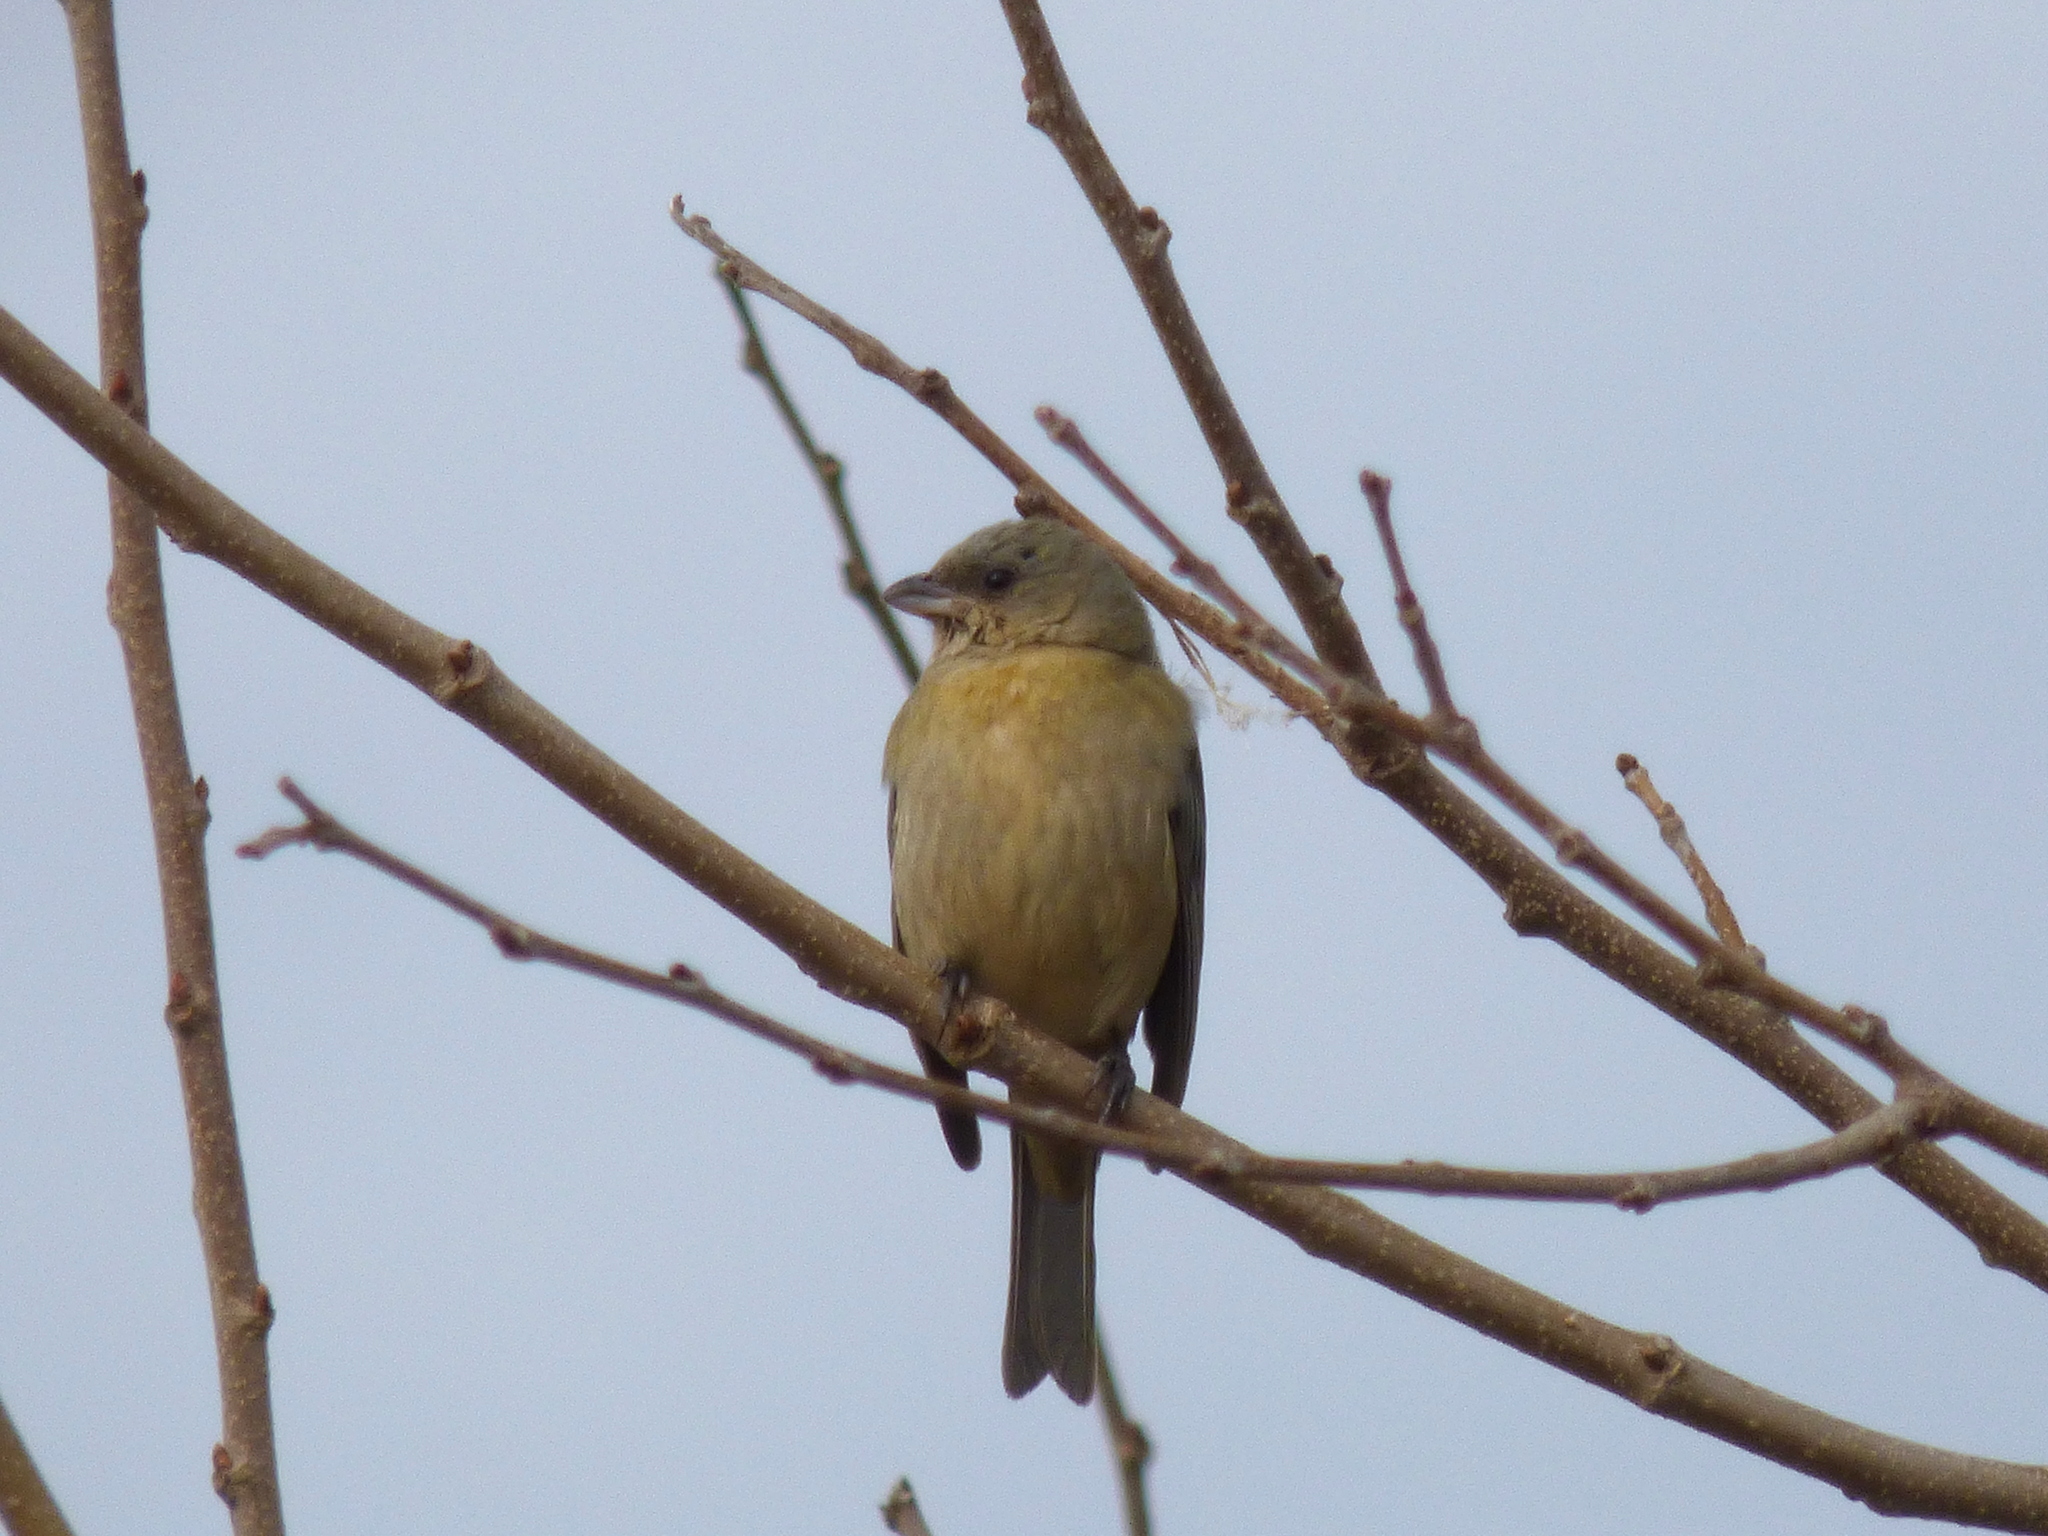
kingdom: Animalia
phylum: Chordata
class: Aves
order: Passeriformes
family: Thraupidae
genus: Rauenia
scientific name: Rauenia bonariensis
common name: Blue-and-yellow tanager
